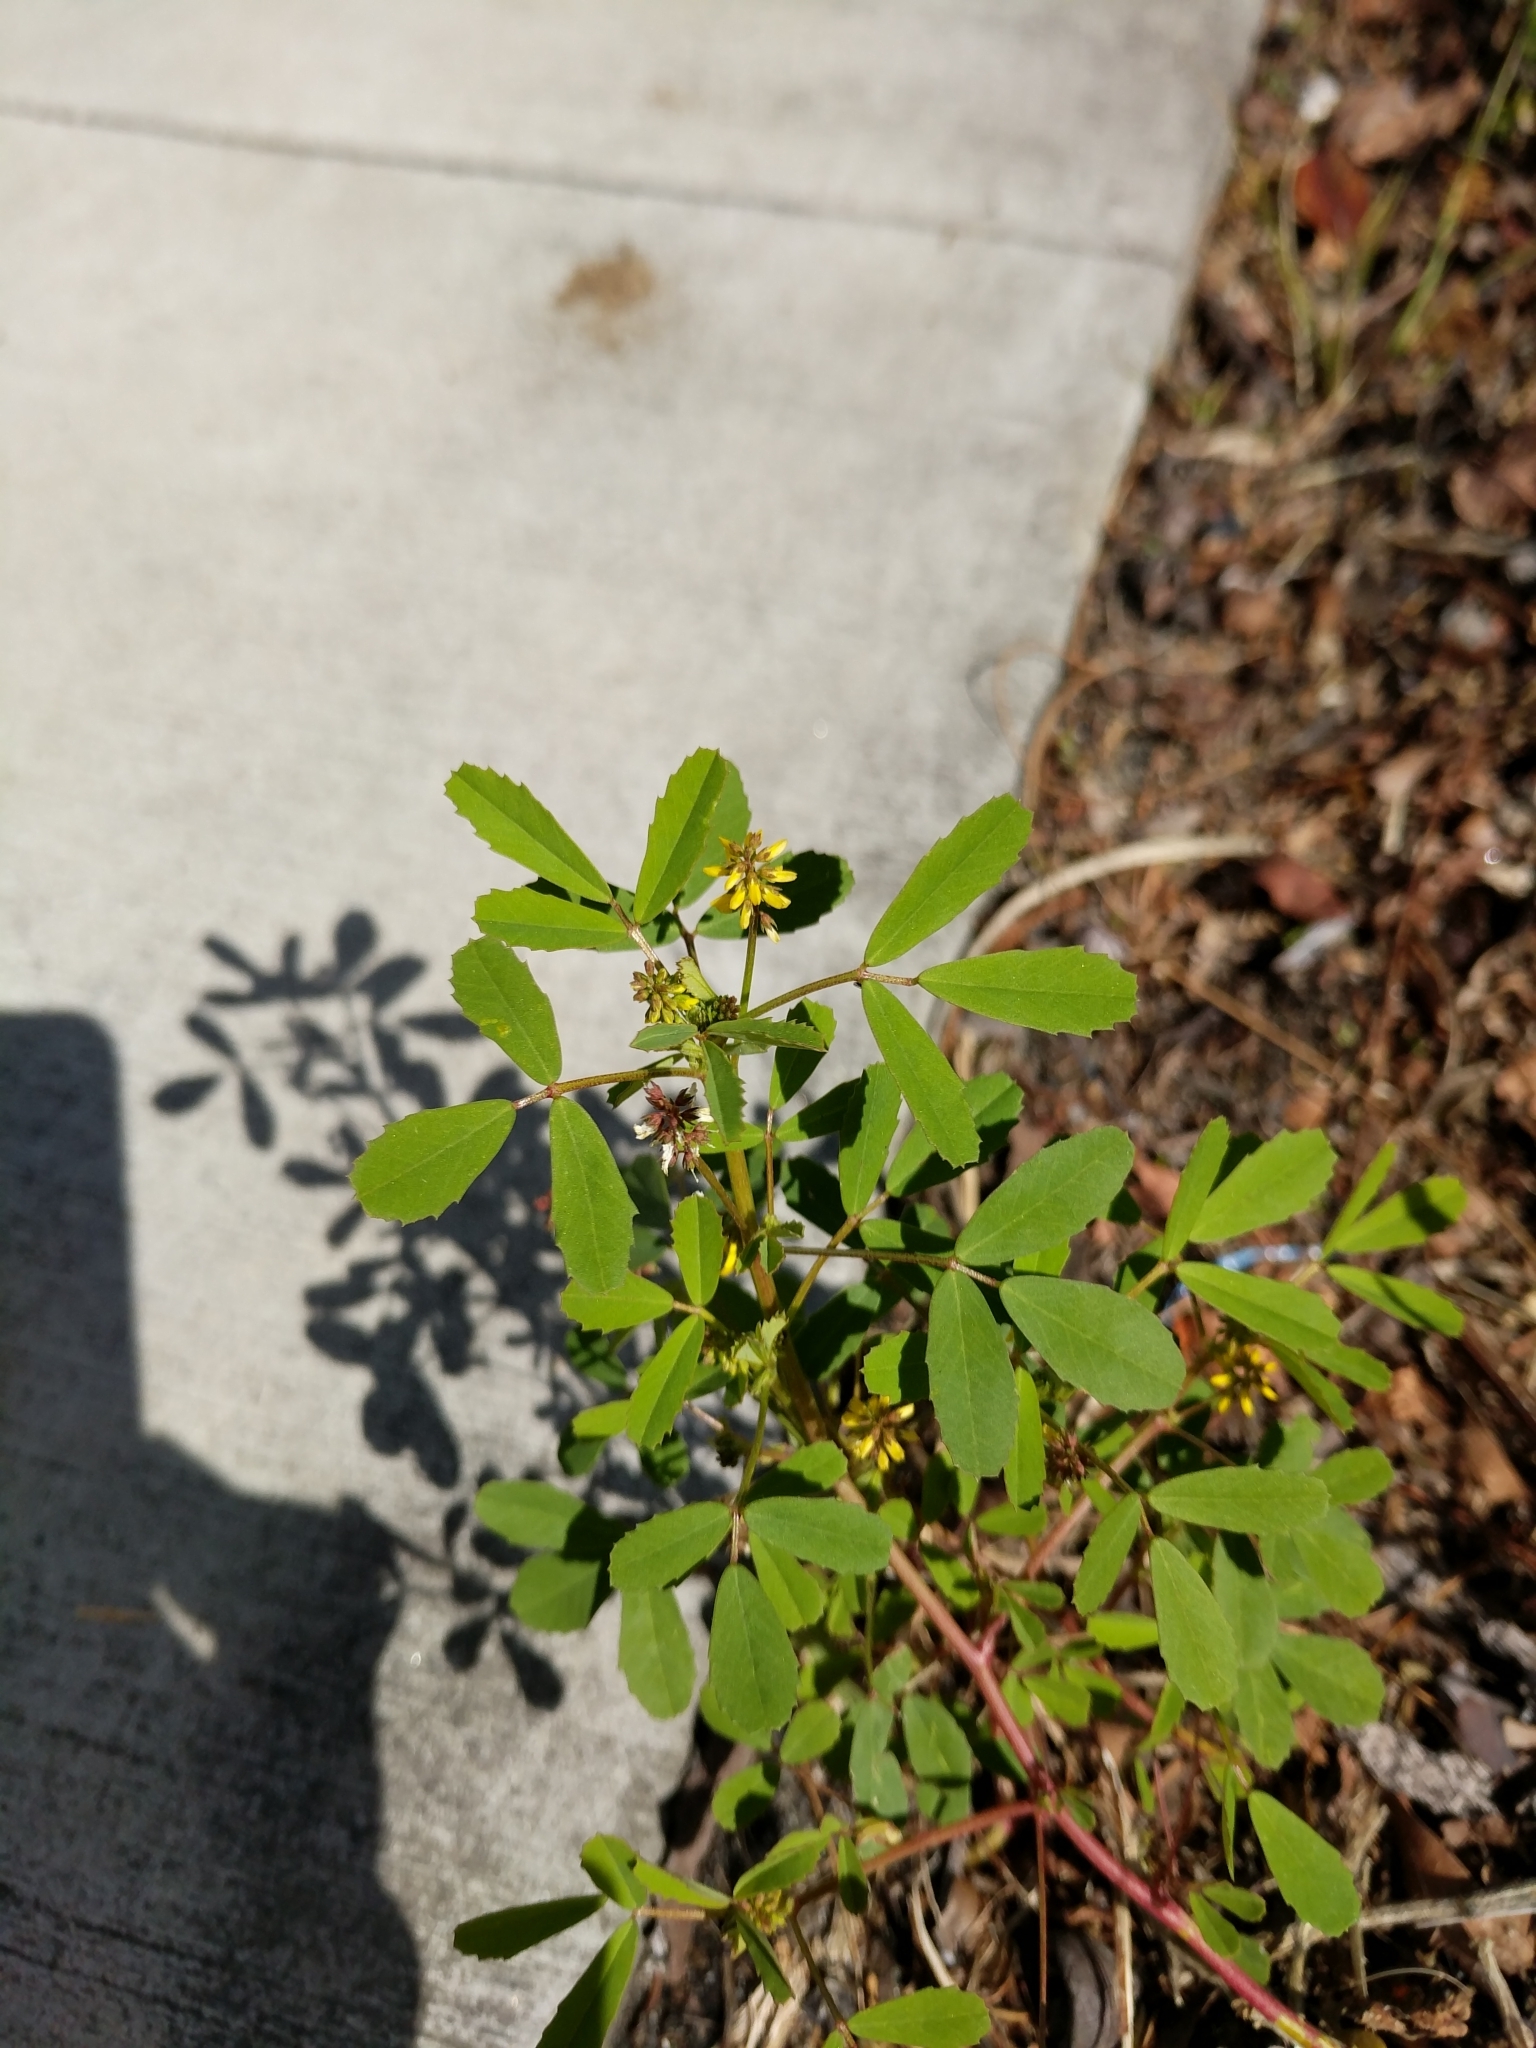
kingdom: Plantae
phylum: Tracheophyta
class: Magnoliopsida
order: Fabales
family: Fabaceae
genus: Melilotus
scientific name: Melilotus indicus
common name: Small melilot
